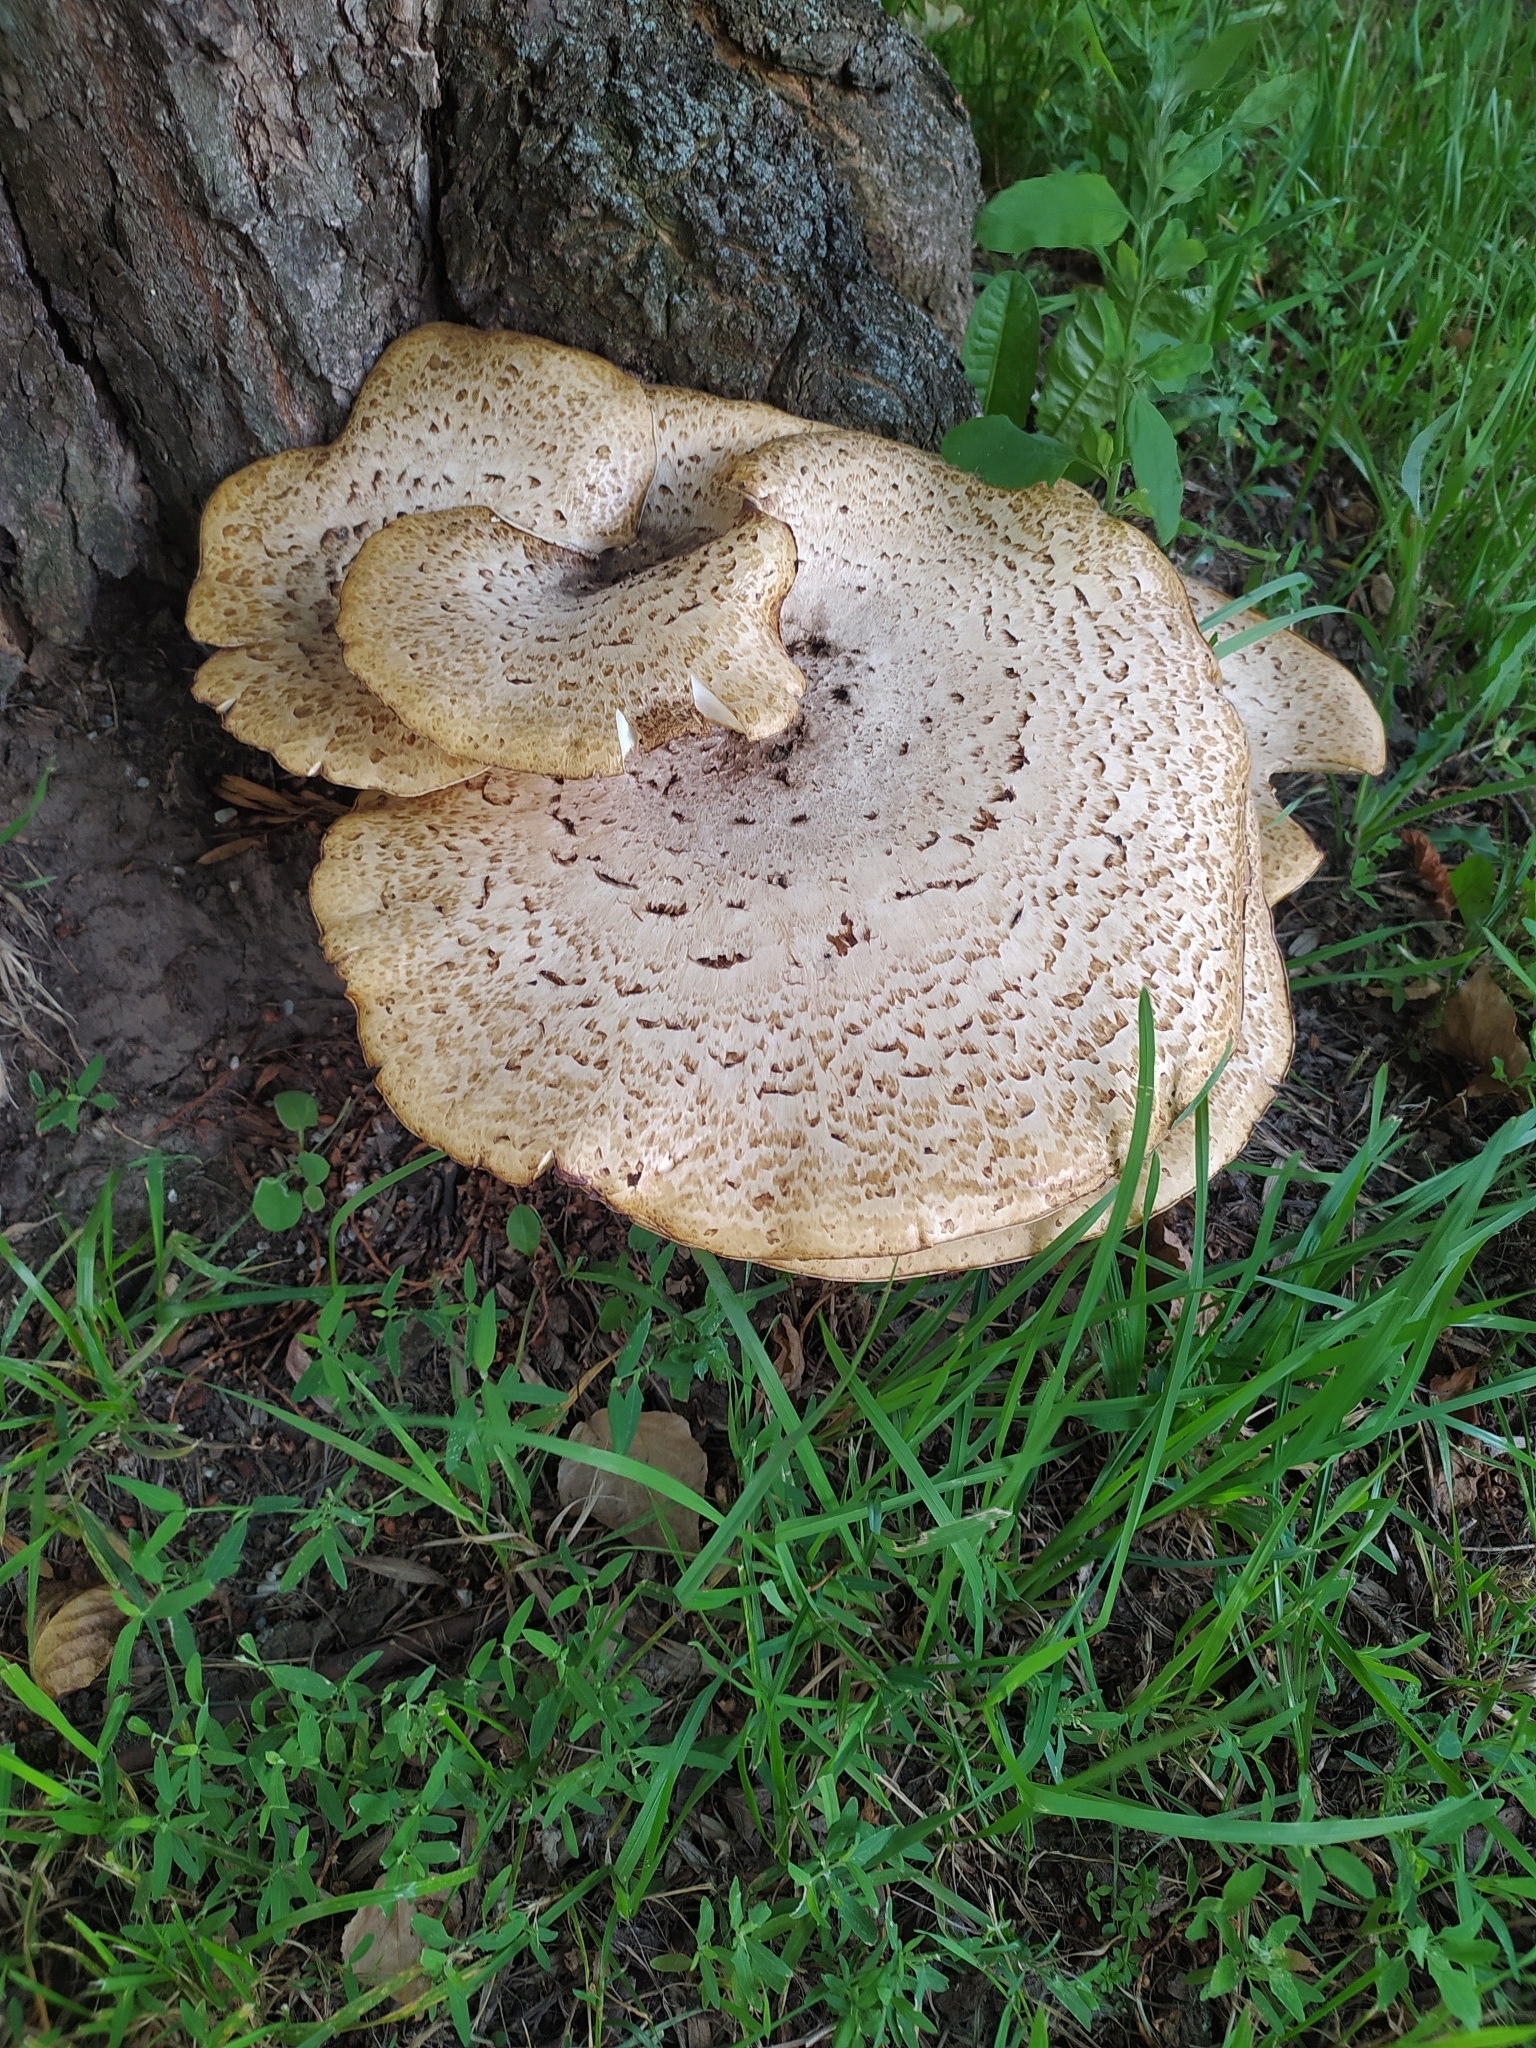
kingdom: Fungi
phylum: Basidiomycota
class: Agaricomycetes
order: Polyporales
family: Polyporaceae
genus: Cerioporus
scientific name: Cerioporus squamosus
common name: Dryad's saddle
